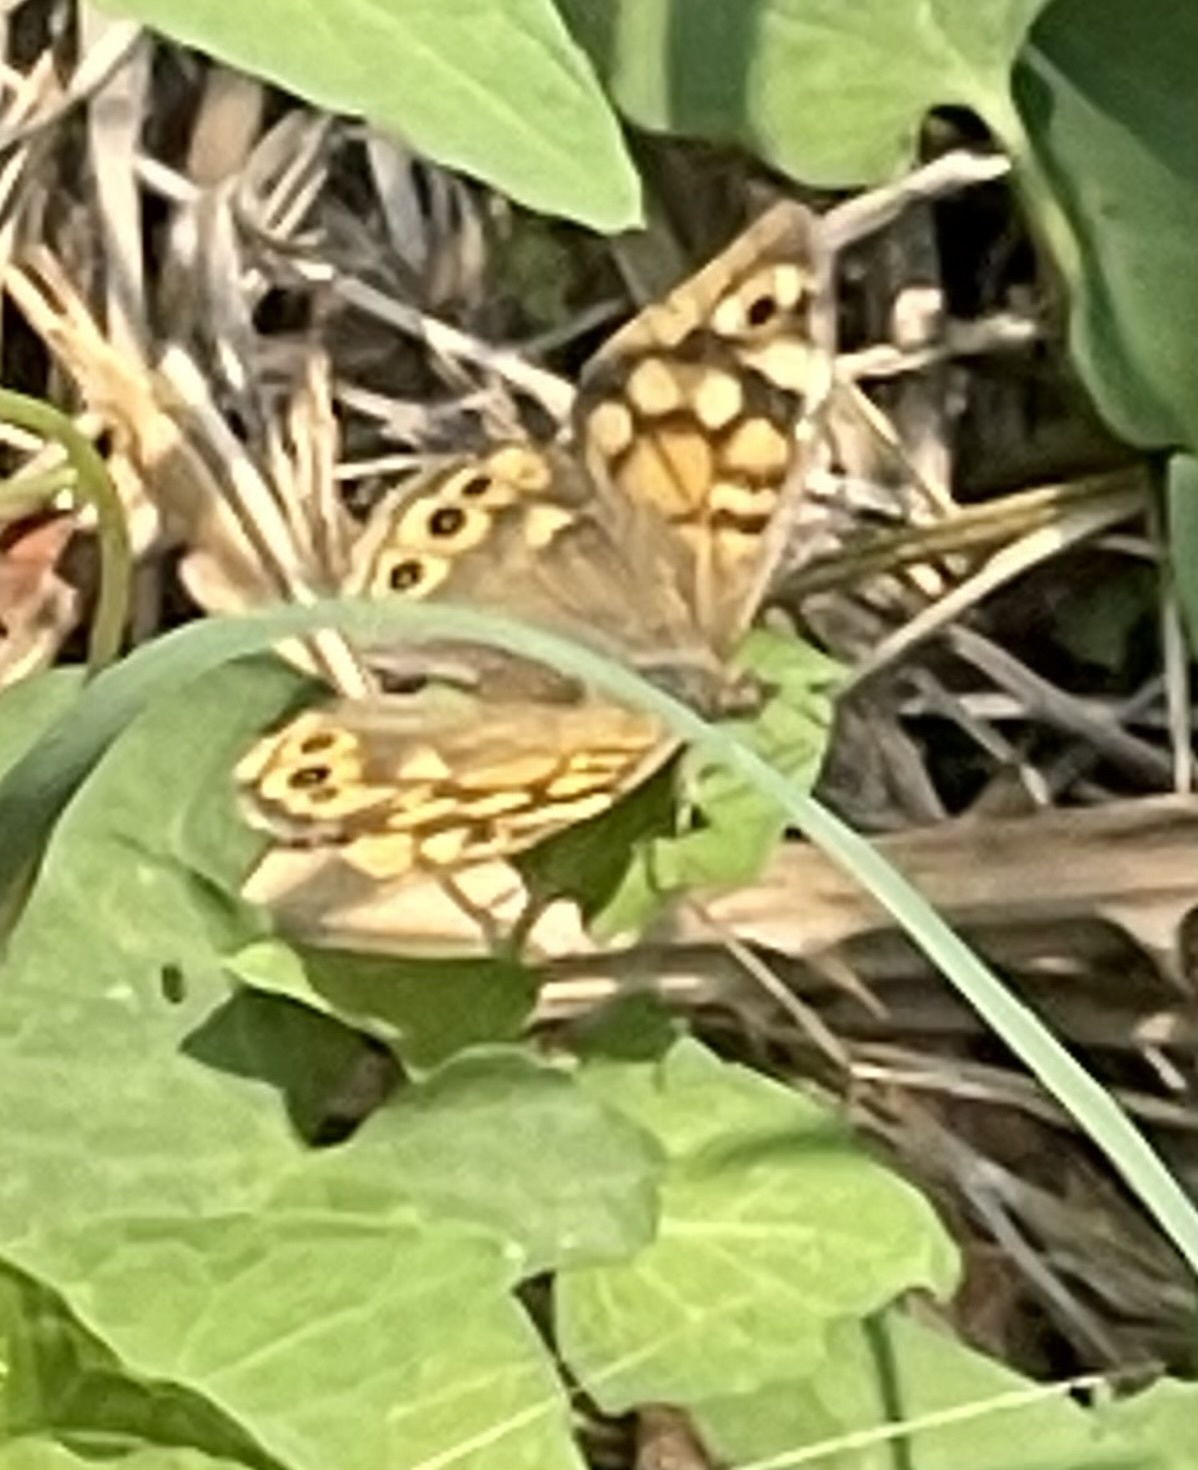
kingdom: Animalia
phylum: Arthropoda
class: Insecta
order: Lepidoptera
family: Nymphalidae
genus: Pararge
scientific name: Pararge aegeria
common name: Speckled wood
